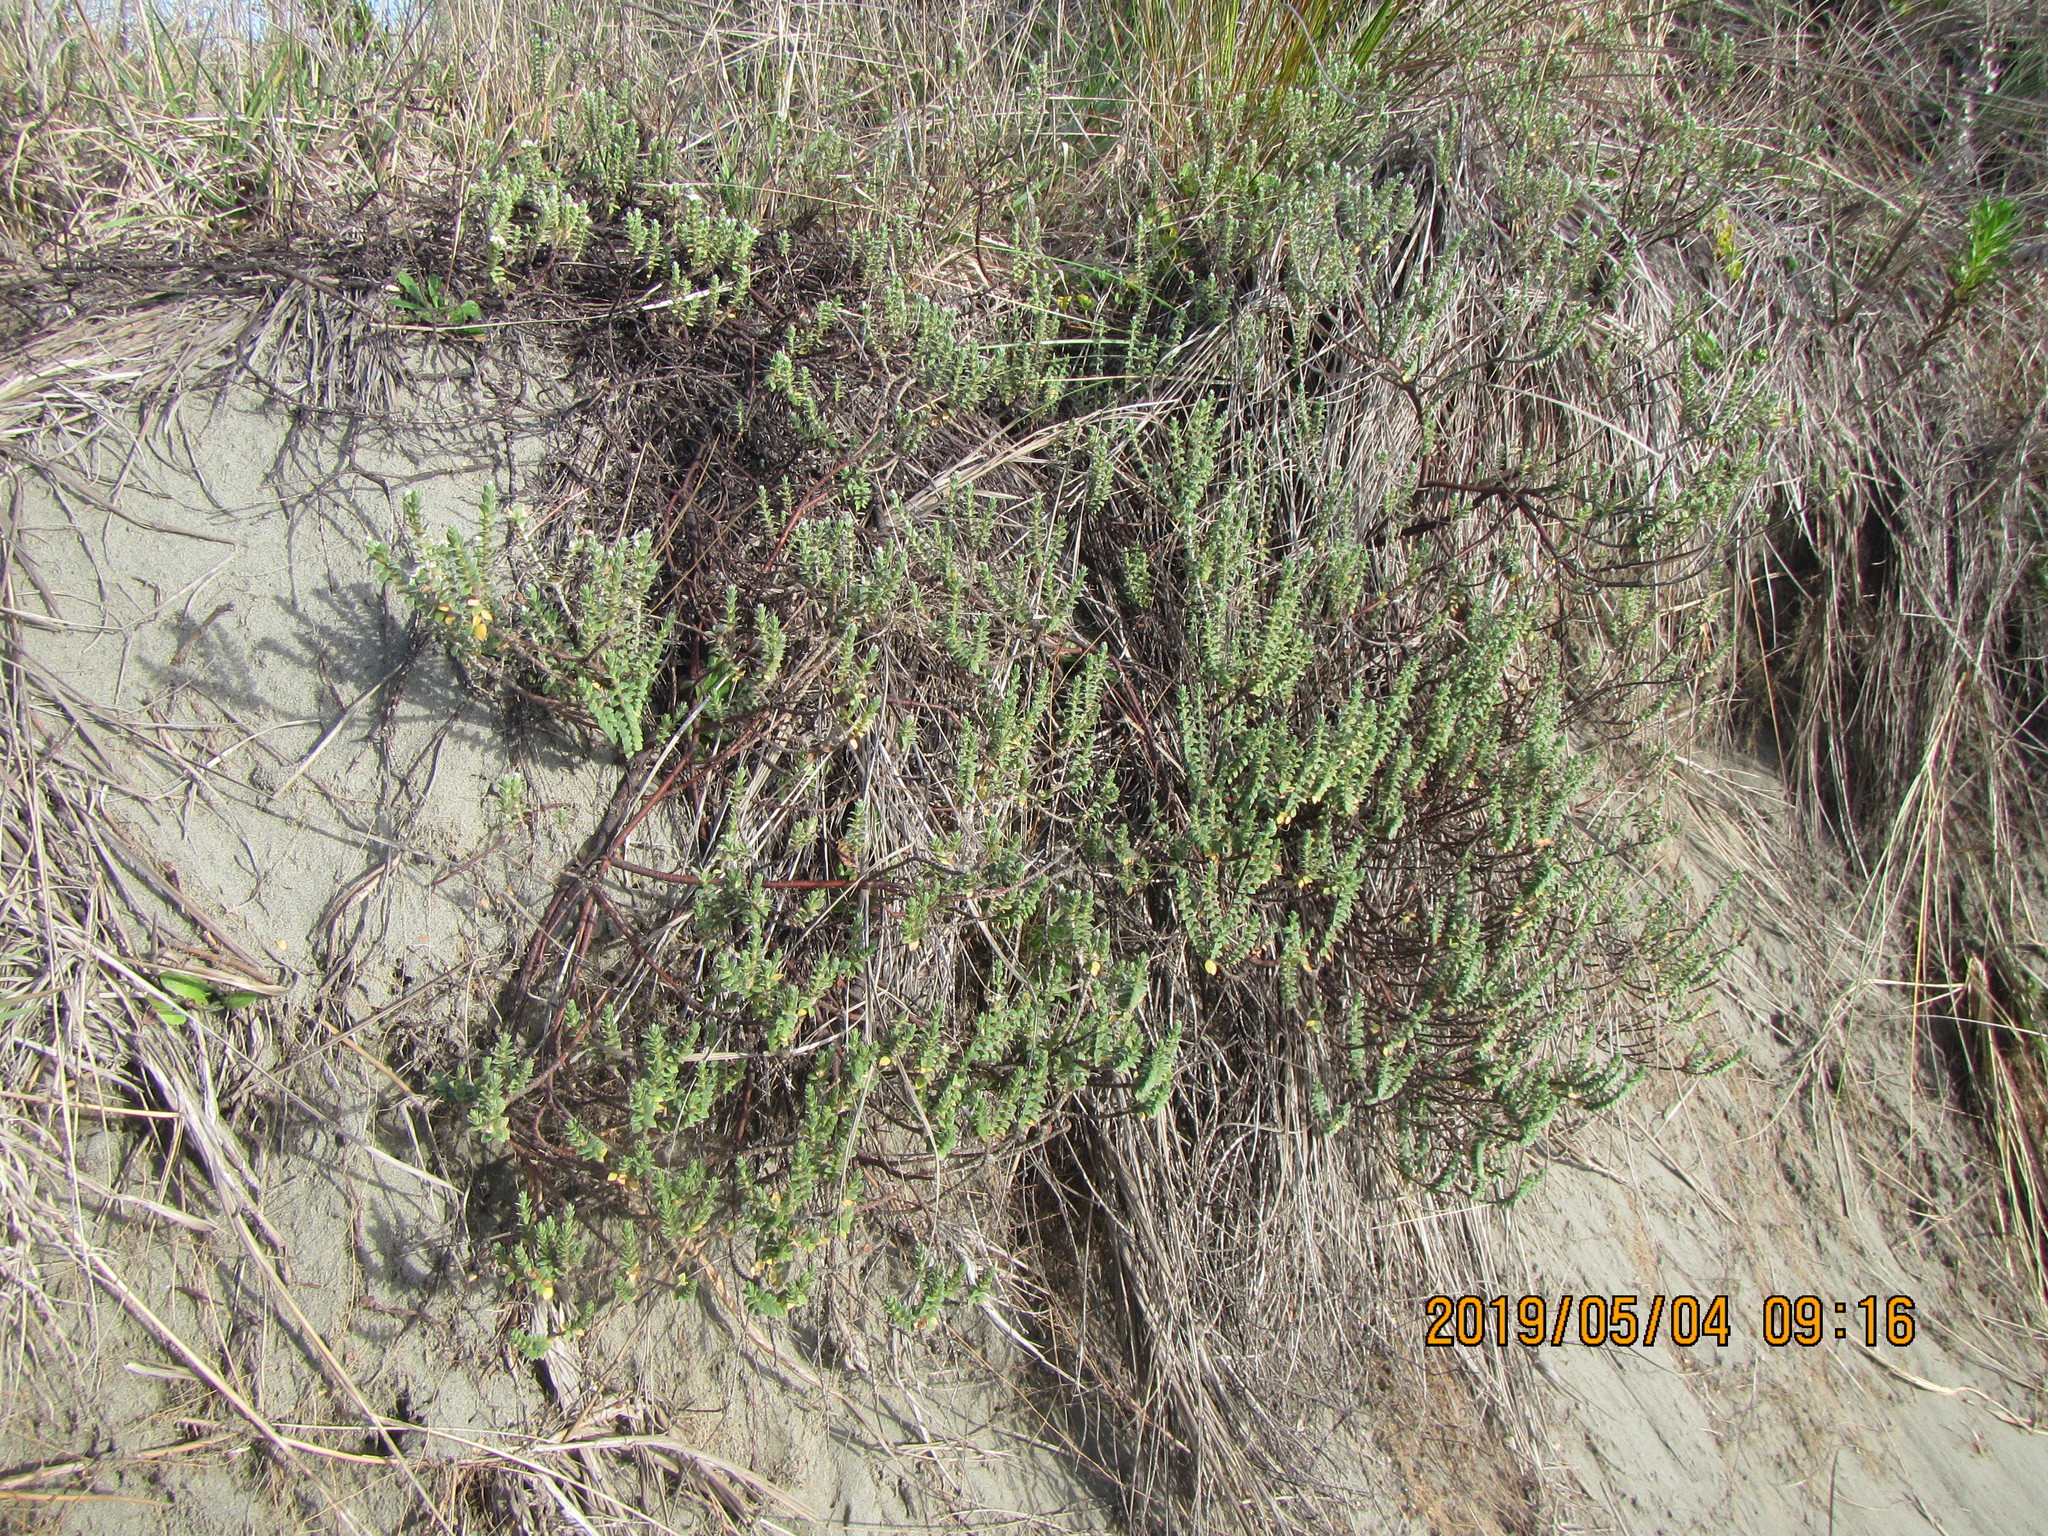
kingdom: Plantae
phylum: Tracheophyta
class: Magnoliopsida
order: Malvales
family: Thymelaeaceae
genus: Pimelea
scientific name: Pimelea villosa
